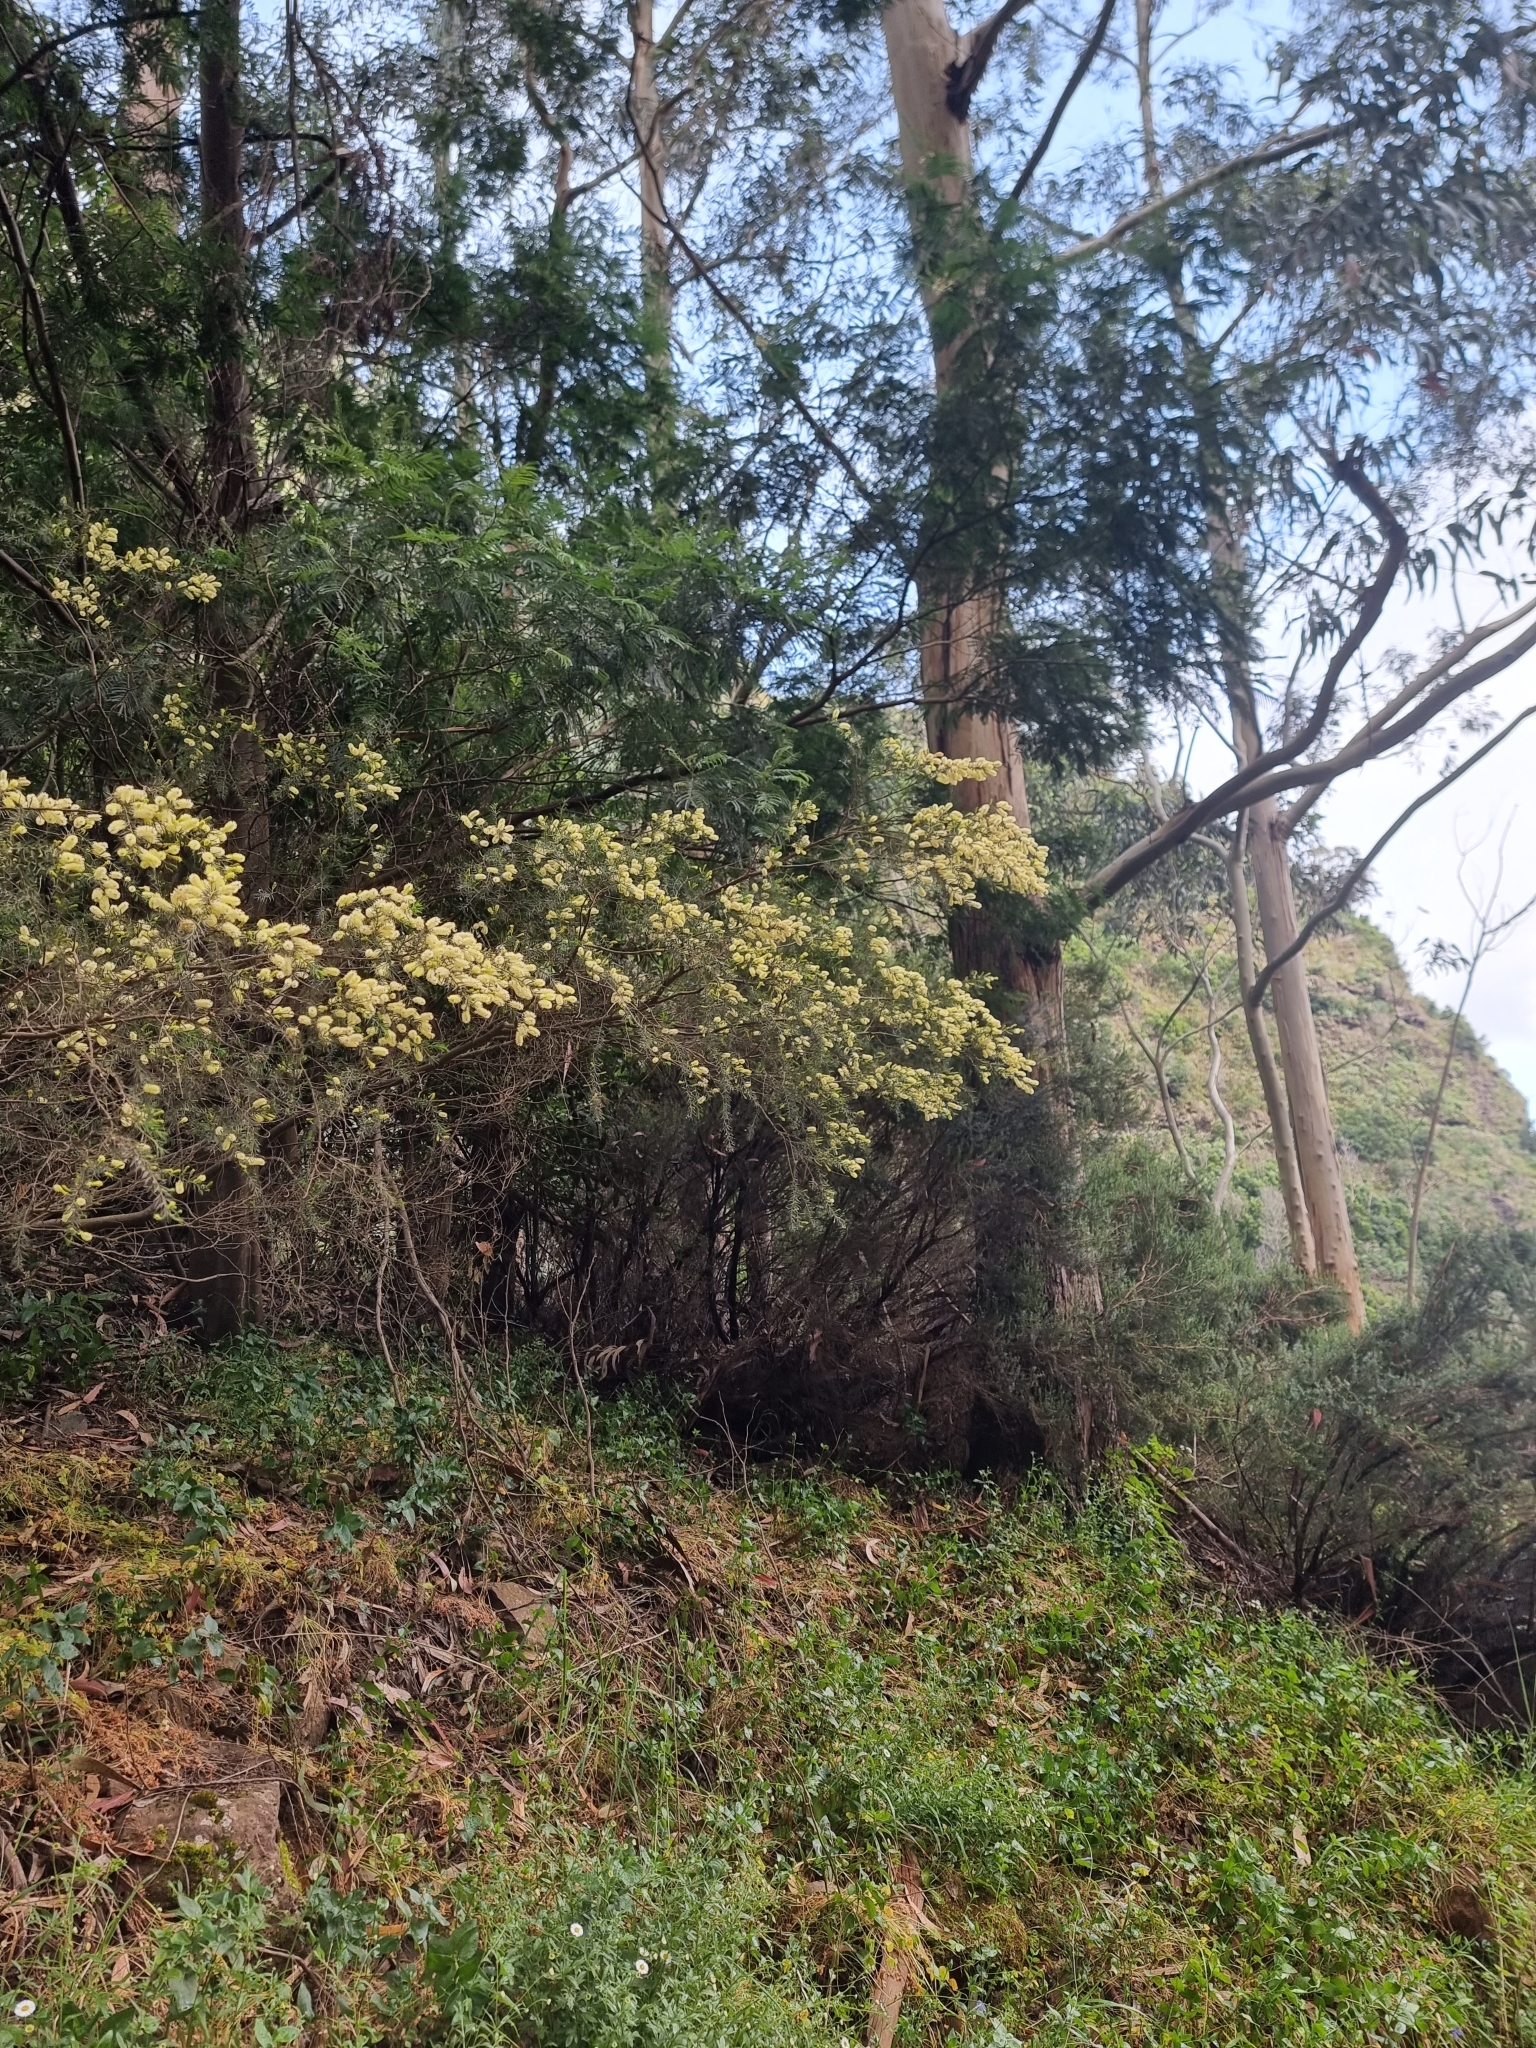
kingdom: Plantae
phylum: Tracheophyta
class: Magnoliopsida
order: Fabales
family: Fabaceae
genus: Acacia
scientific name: Acacia verticillata
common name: Prickly moses
